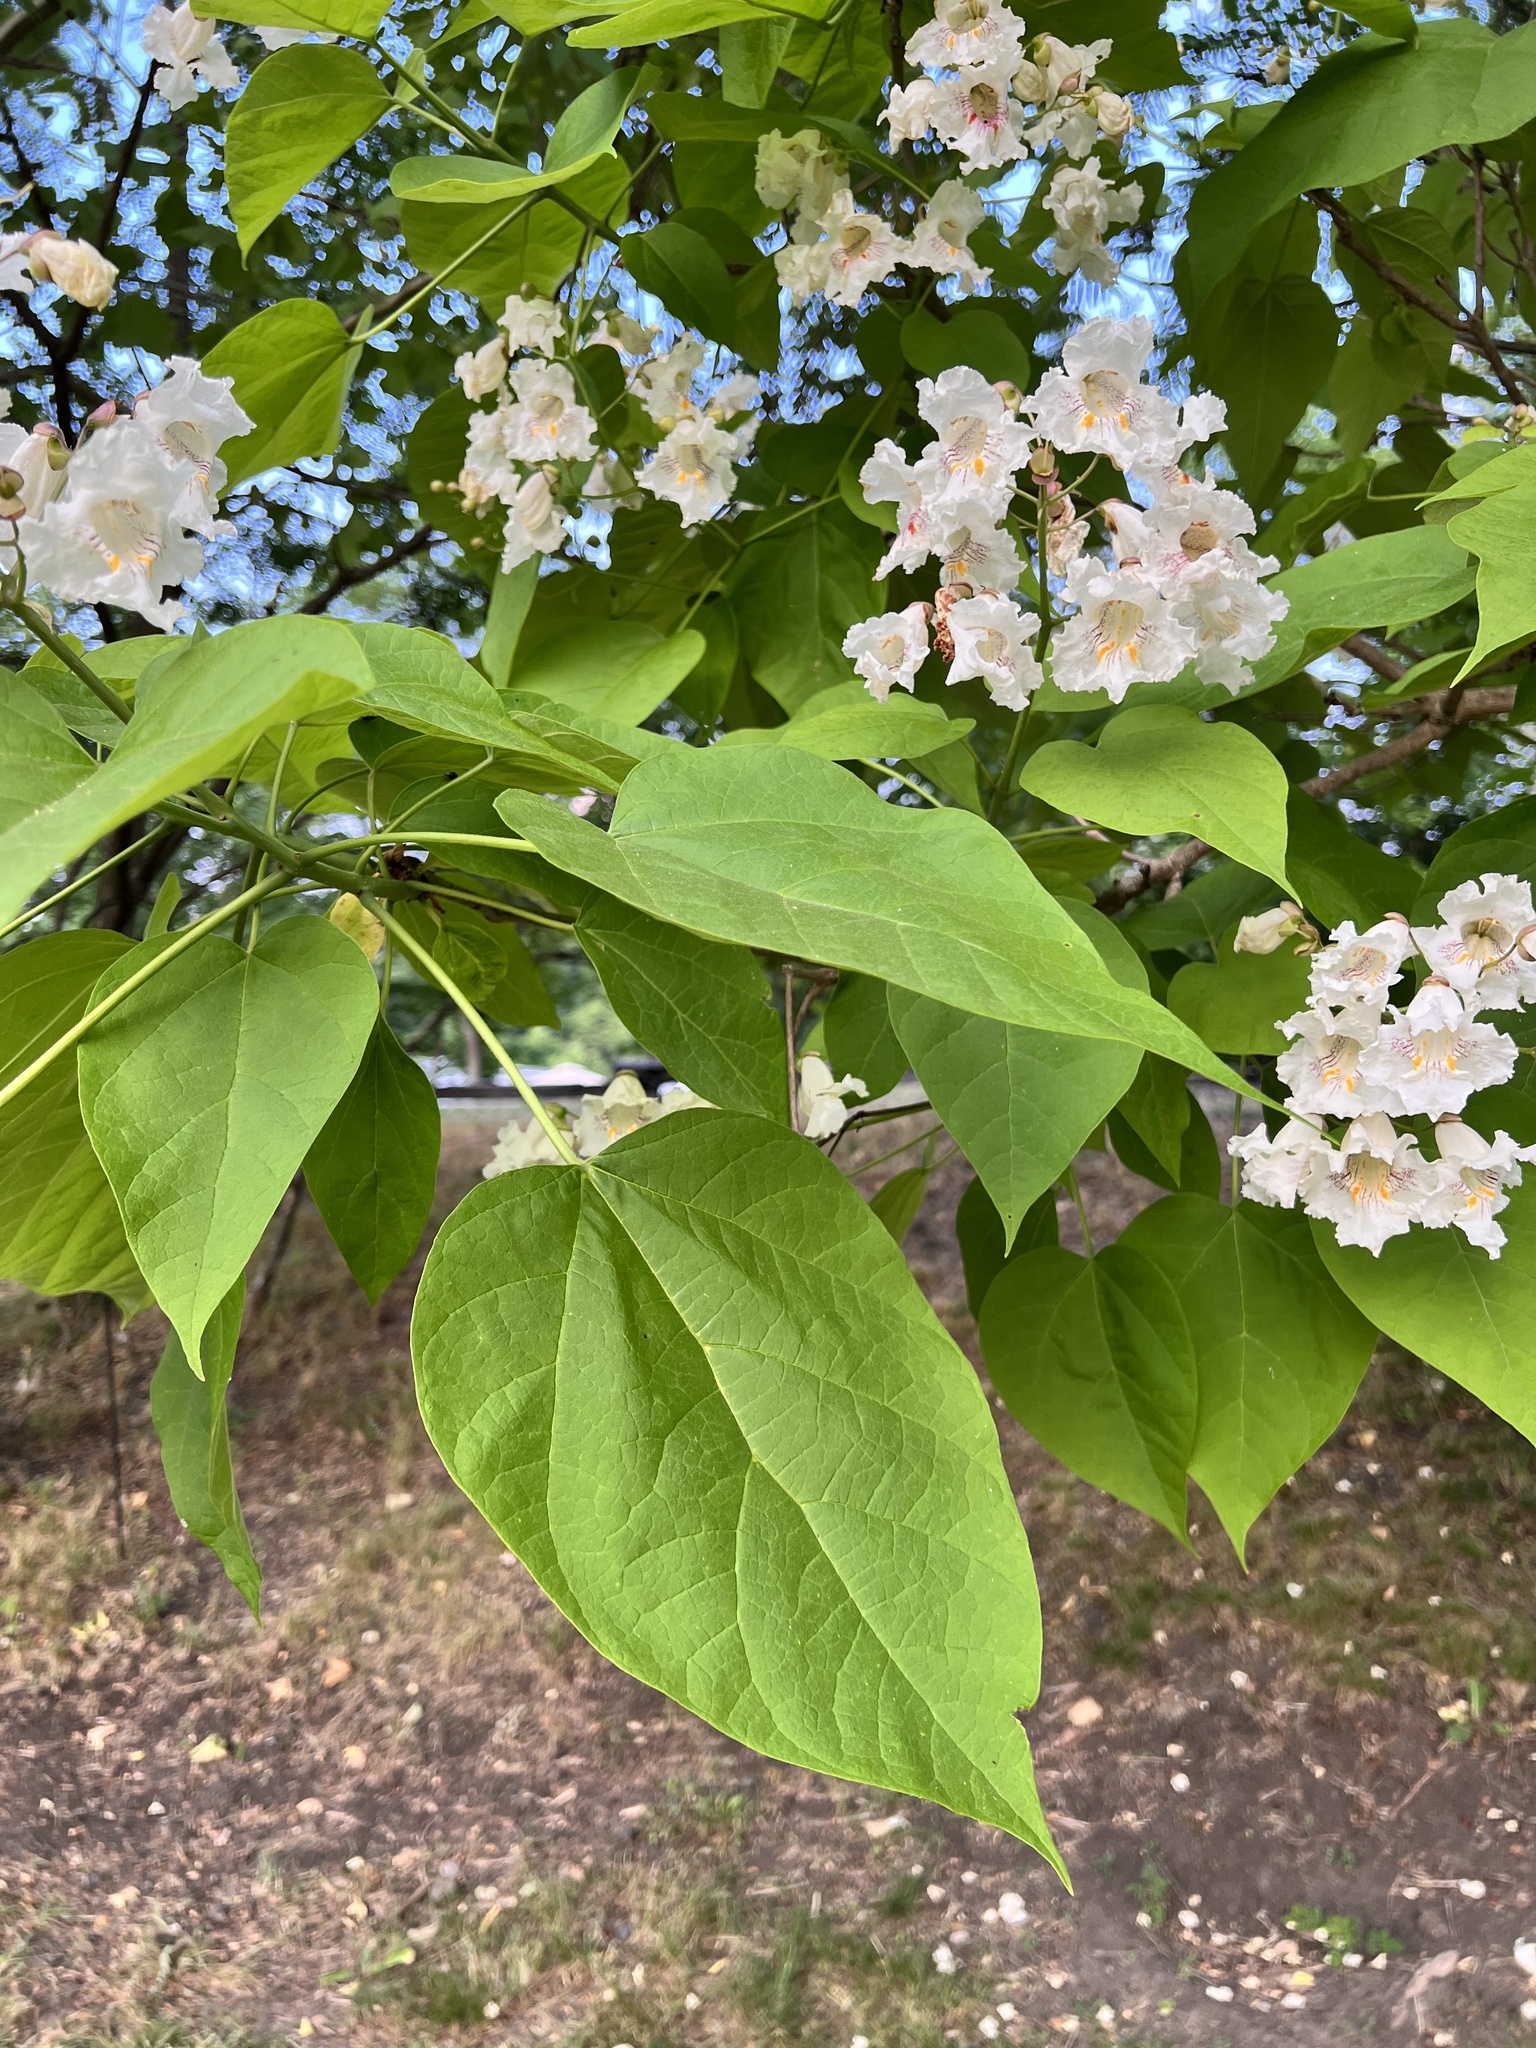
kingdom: Plantae
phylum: Tracheophyta
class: Magnoliopsida
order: Lamiales
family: Bignoniaceae
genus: Catalpa
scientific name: Catalpa speciosa
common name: Northern catalpa
